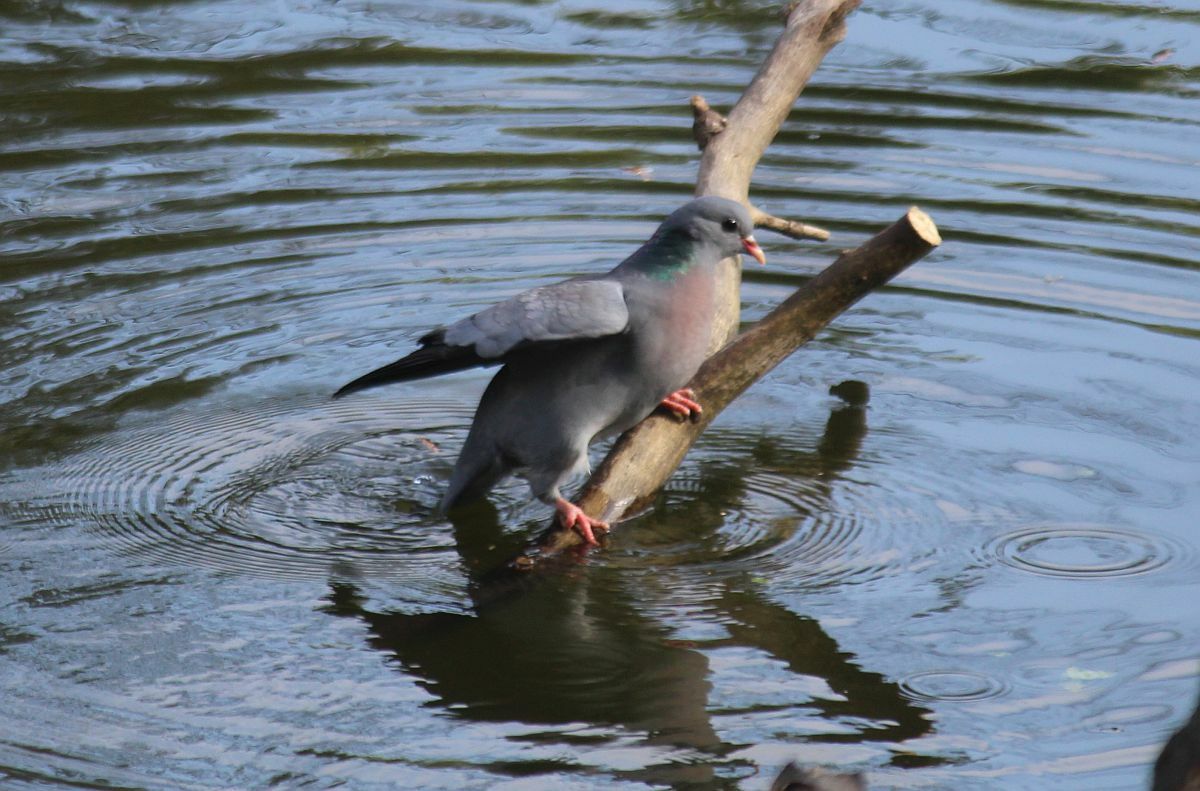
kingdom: Animalia
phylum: Chordata
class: Aves
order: Columbiformes
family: Columbidae
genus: Columba
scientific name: Columba oenas
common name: Stock dove
